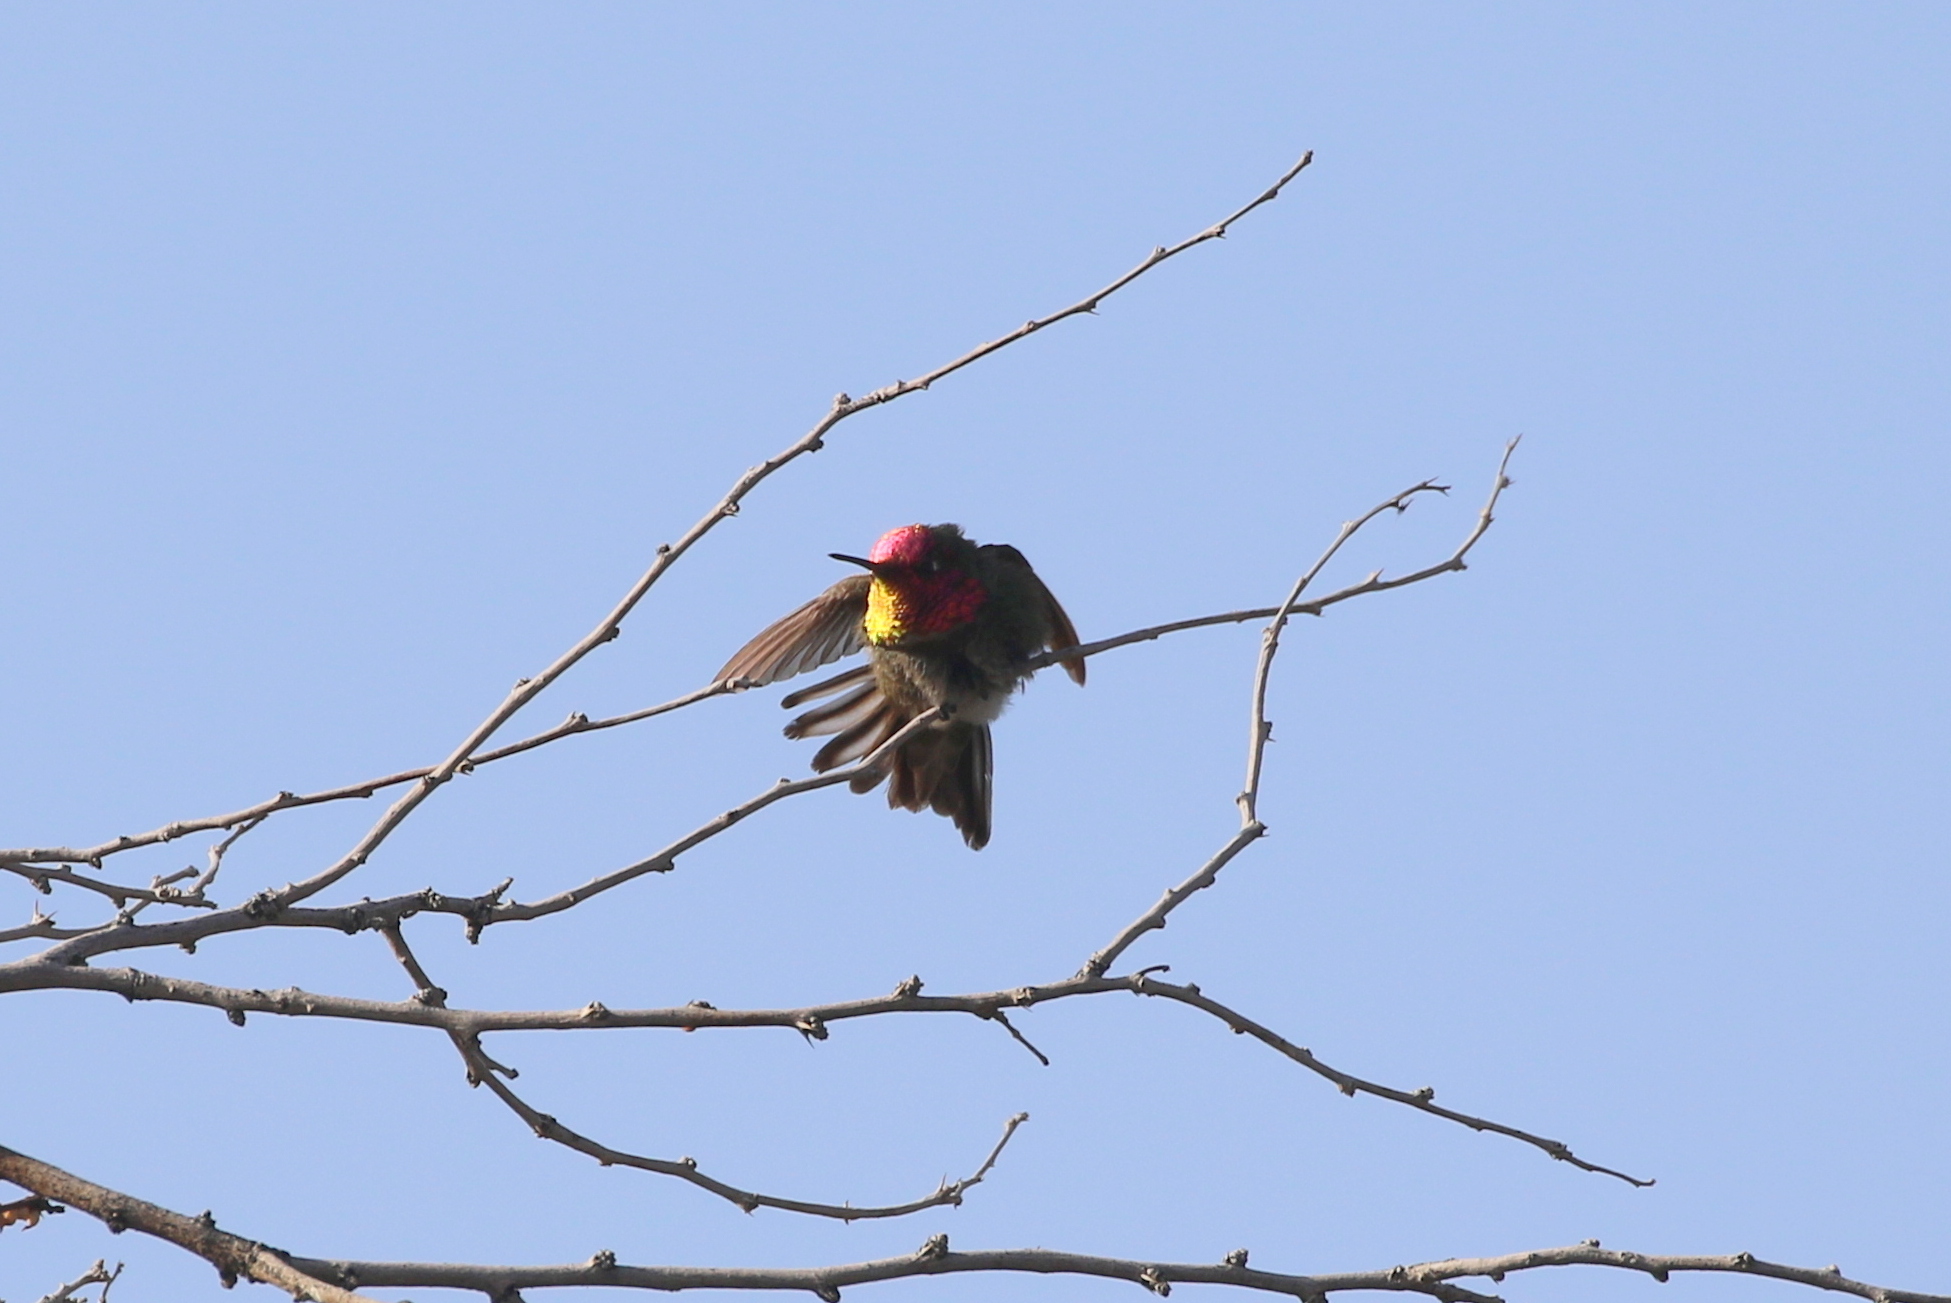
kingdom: Animalia
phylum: Chordata
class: Aves
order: Apodiformes
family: Trochilidae
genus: Calypte
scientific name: Calypte anna
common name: Anna's hummingbird
